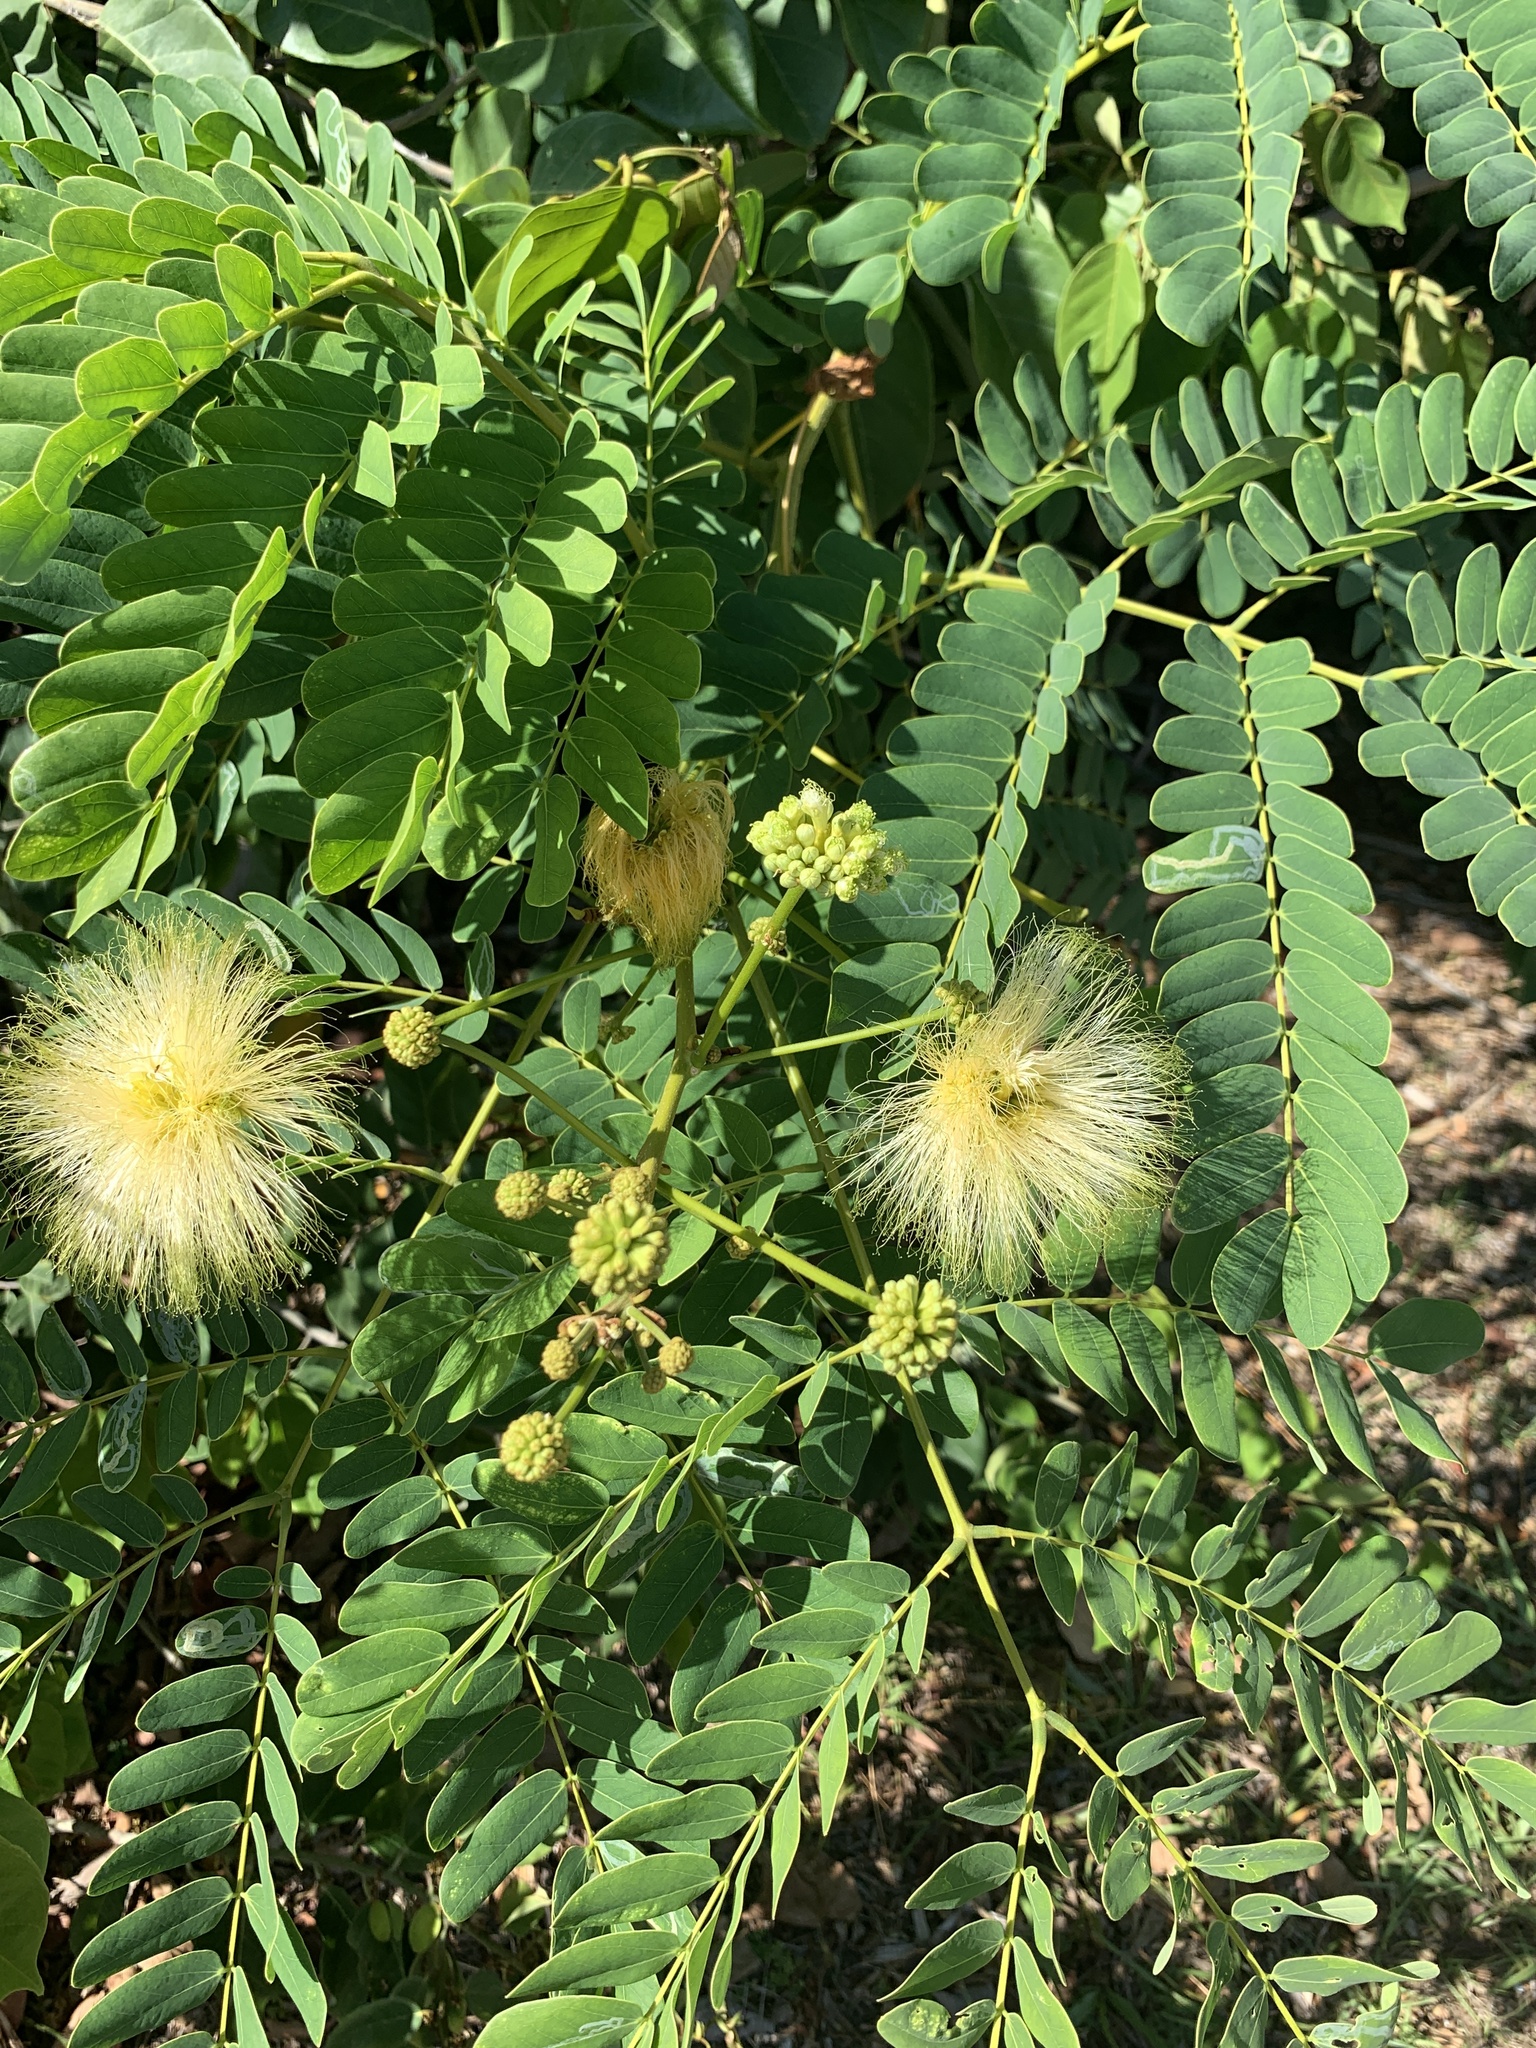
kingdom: Plantae
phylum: Tracheophyta
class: Magnoliopsida
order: Fabales
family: Fabaceae
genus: Albizia
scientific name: Albizia lebbeck
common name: Woman's tongue
